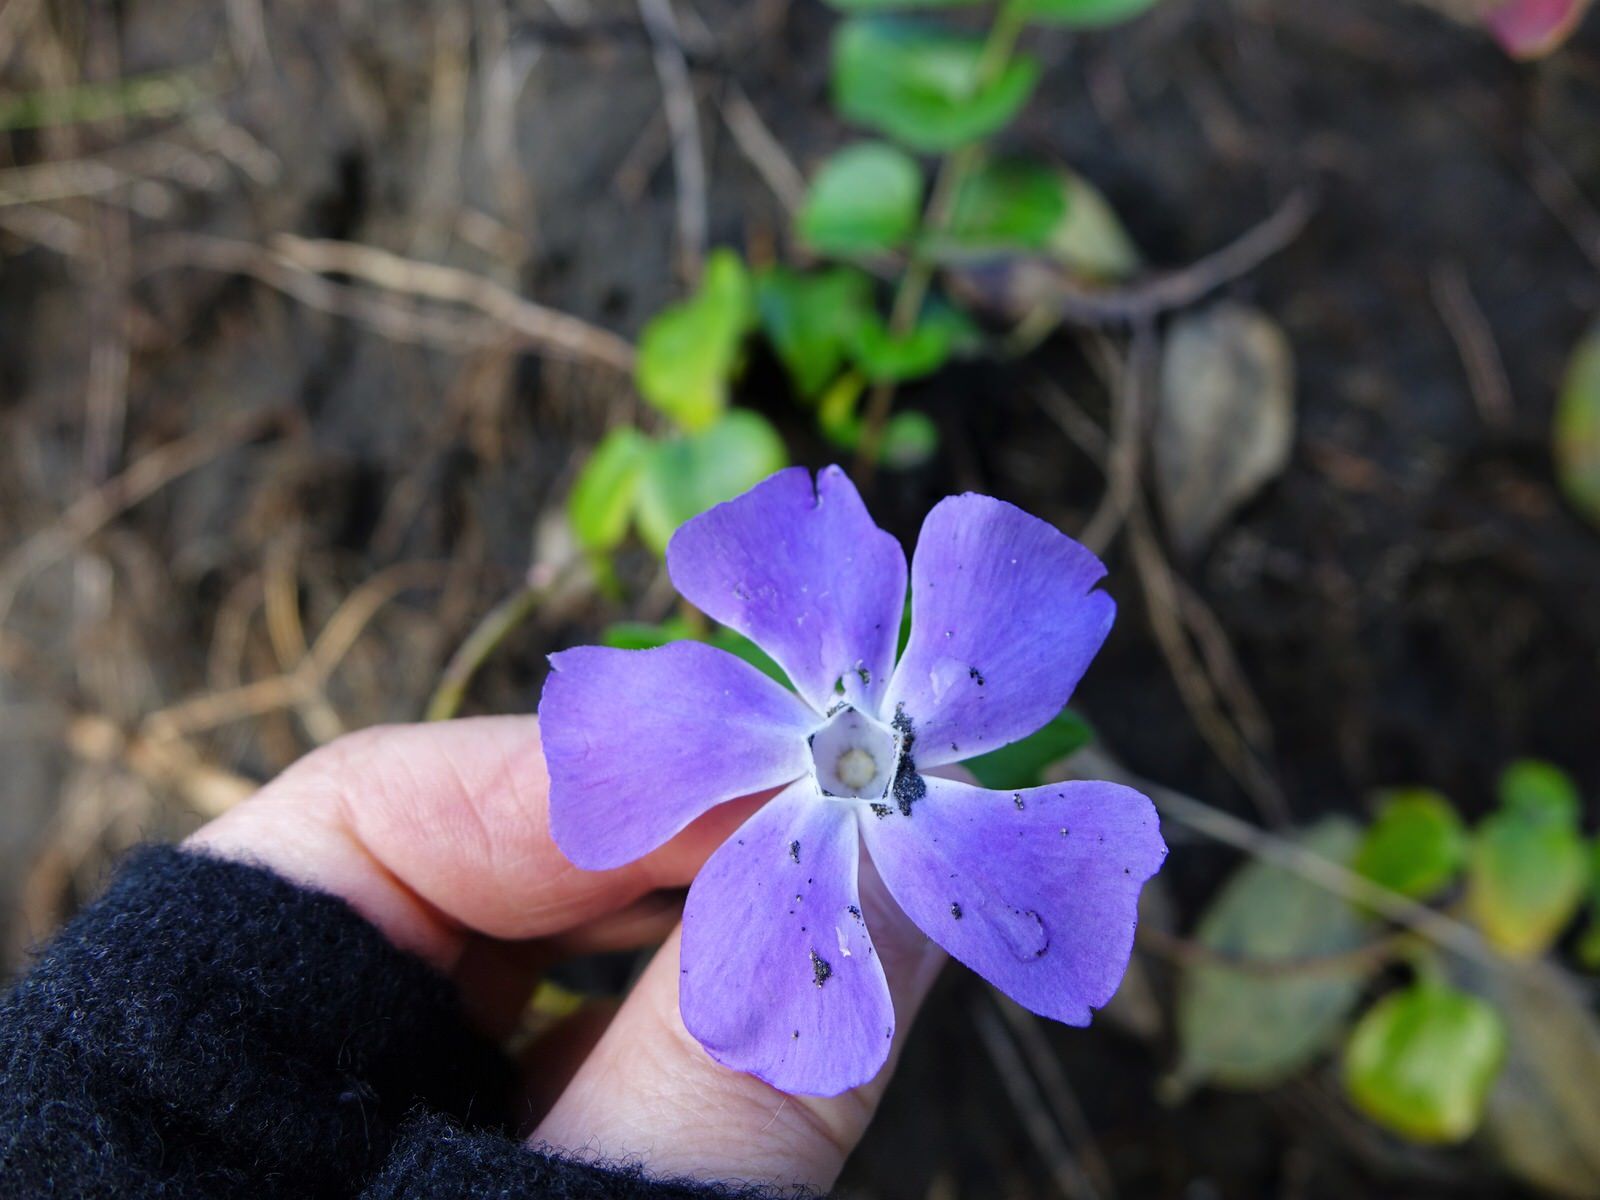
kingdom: Plantae
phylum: Tracheophyta
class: Magnoliopsida
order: Gentianales
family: Apocynaceae
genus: Vinca
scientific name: Vinca major
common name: Greater periwinkle
